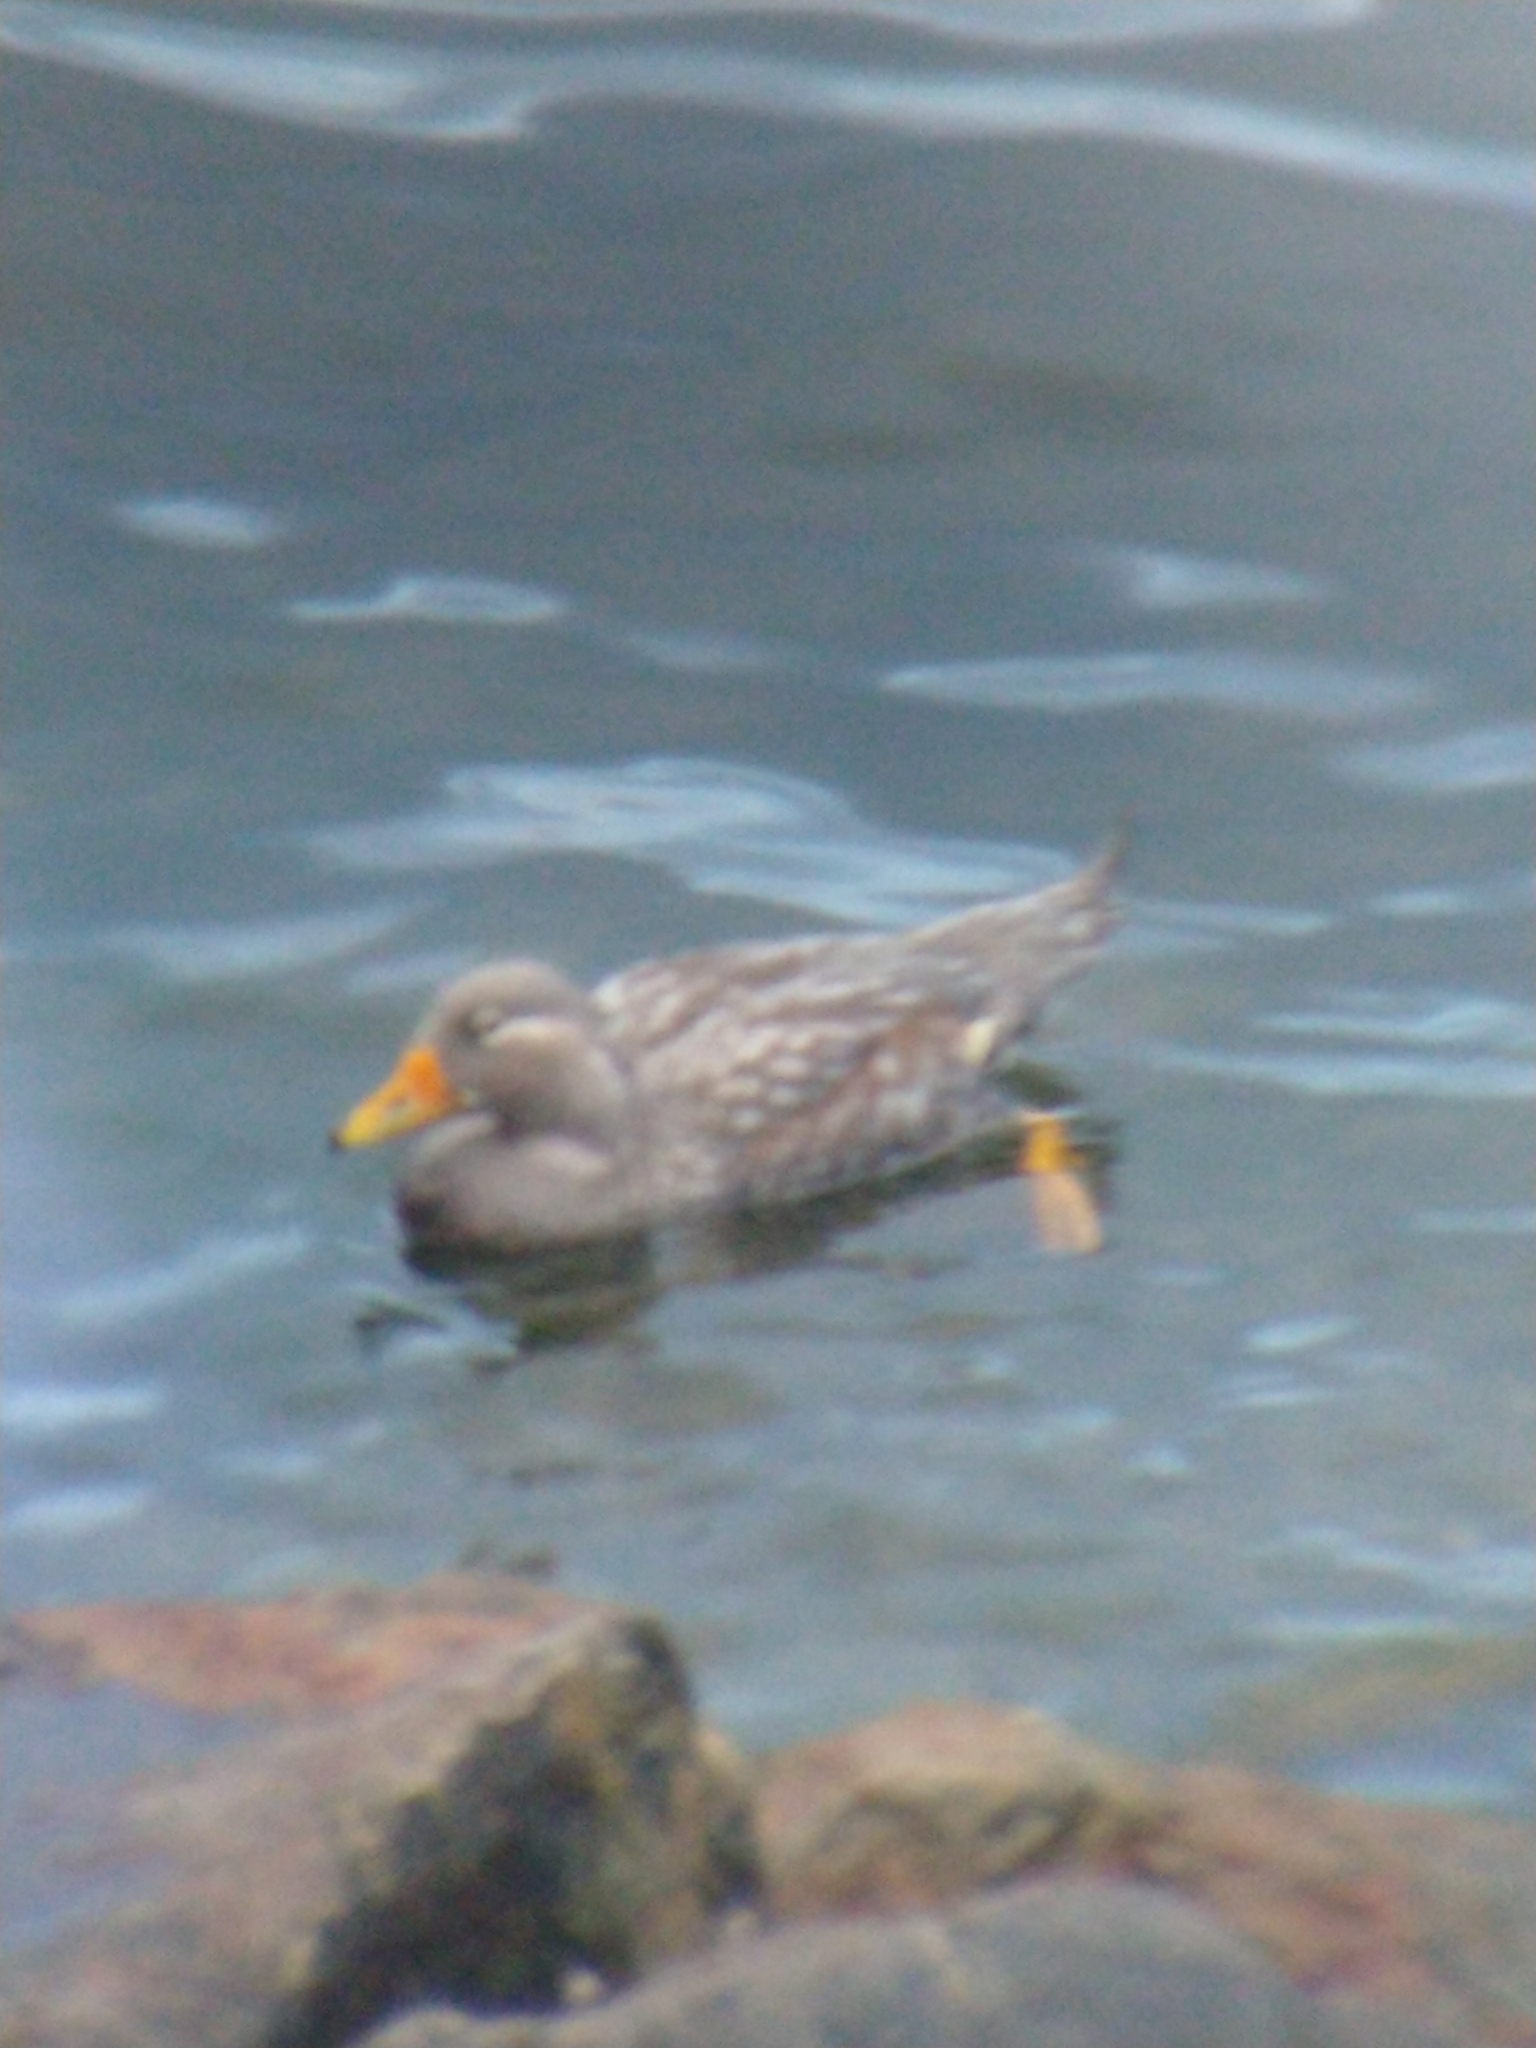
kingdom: Animalia
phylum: Chordata
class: Aves
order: Anseriformes
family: Anatidae
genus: Tachyeres
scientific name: Tachyeres patachonicus
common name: Flying steamer duck
